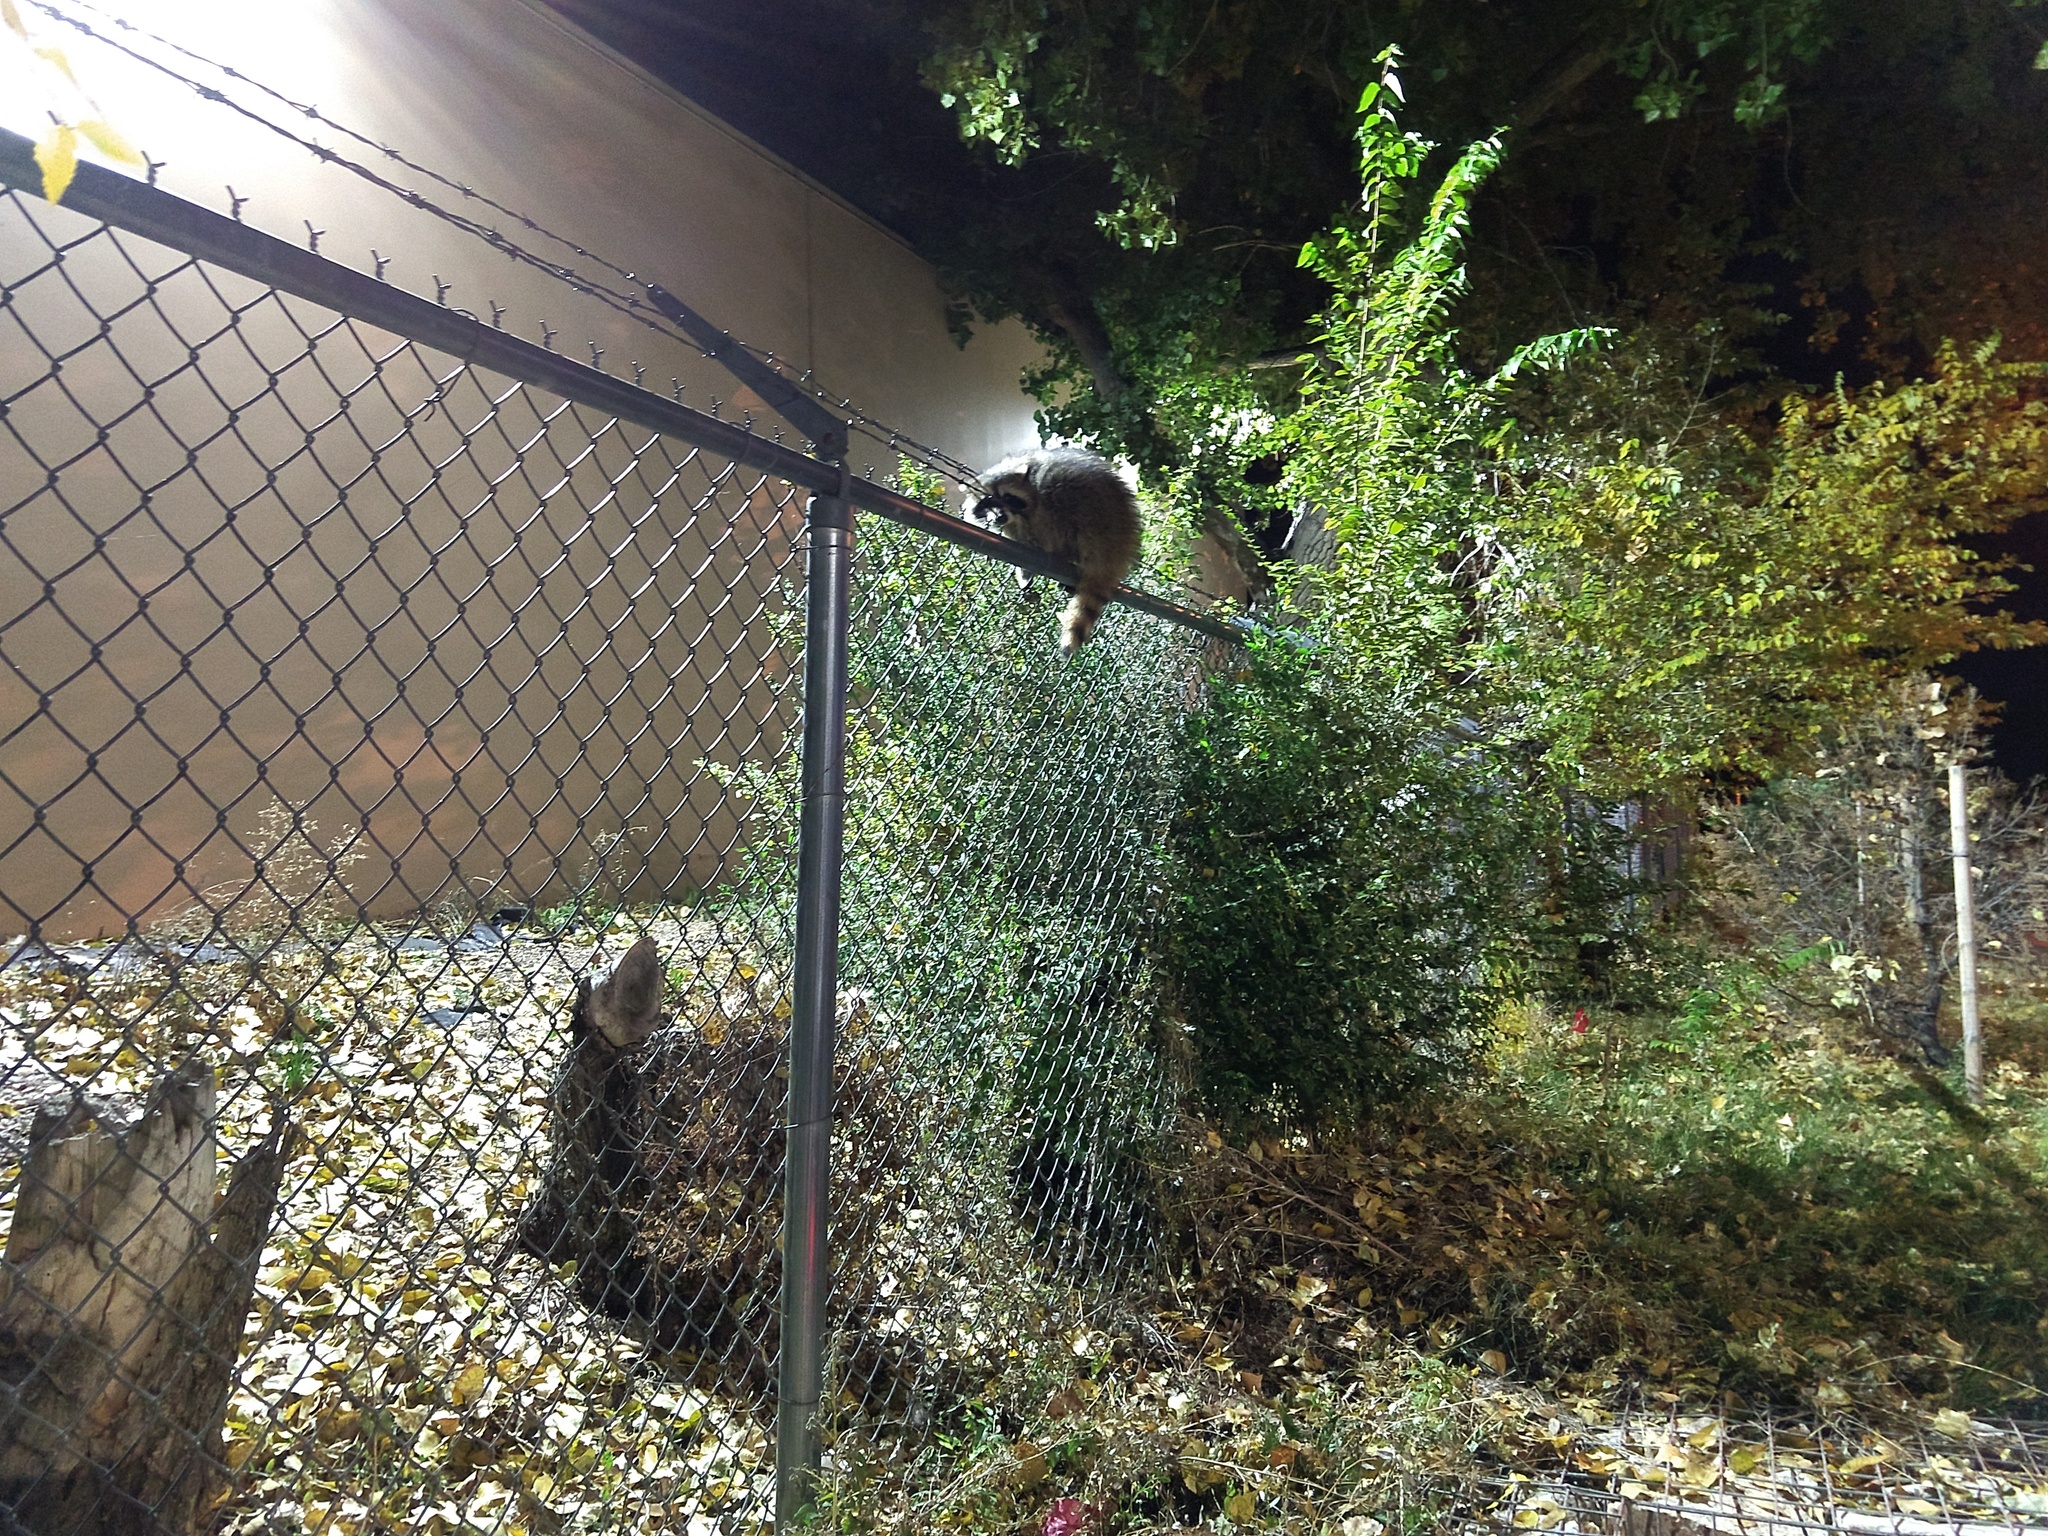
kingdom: Animalia
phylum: Chordata
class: Mammalia
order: Carnivora
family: Procyonidae
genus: Procyon
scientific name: Procyon lotor
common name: Raccoon
